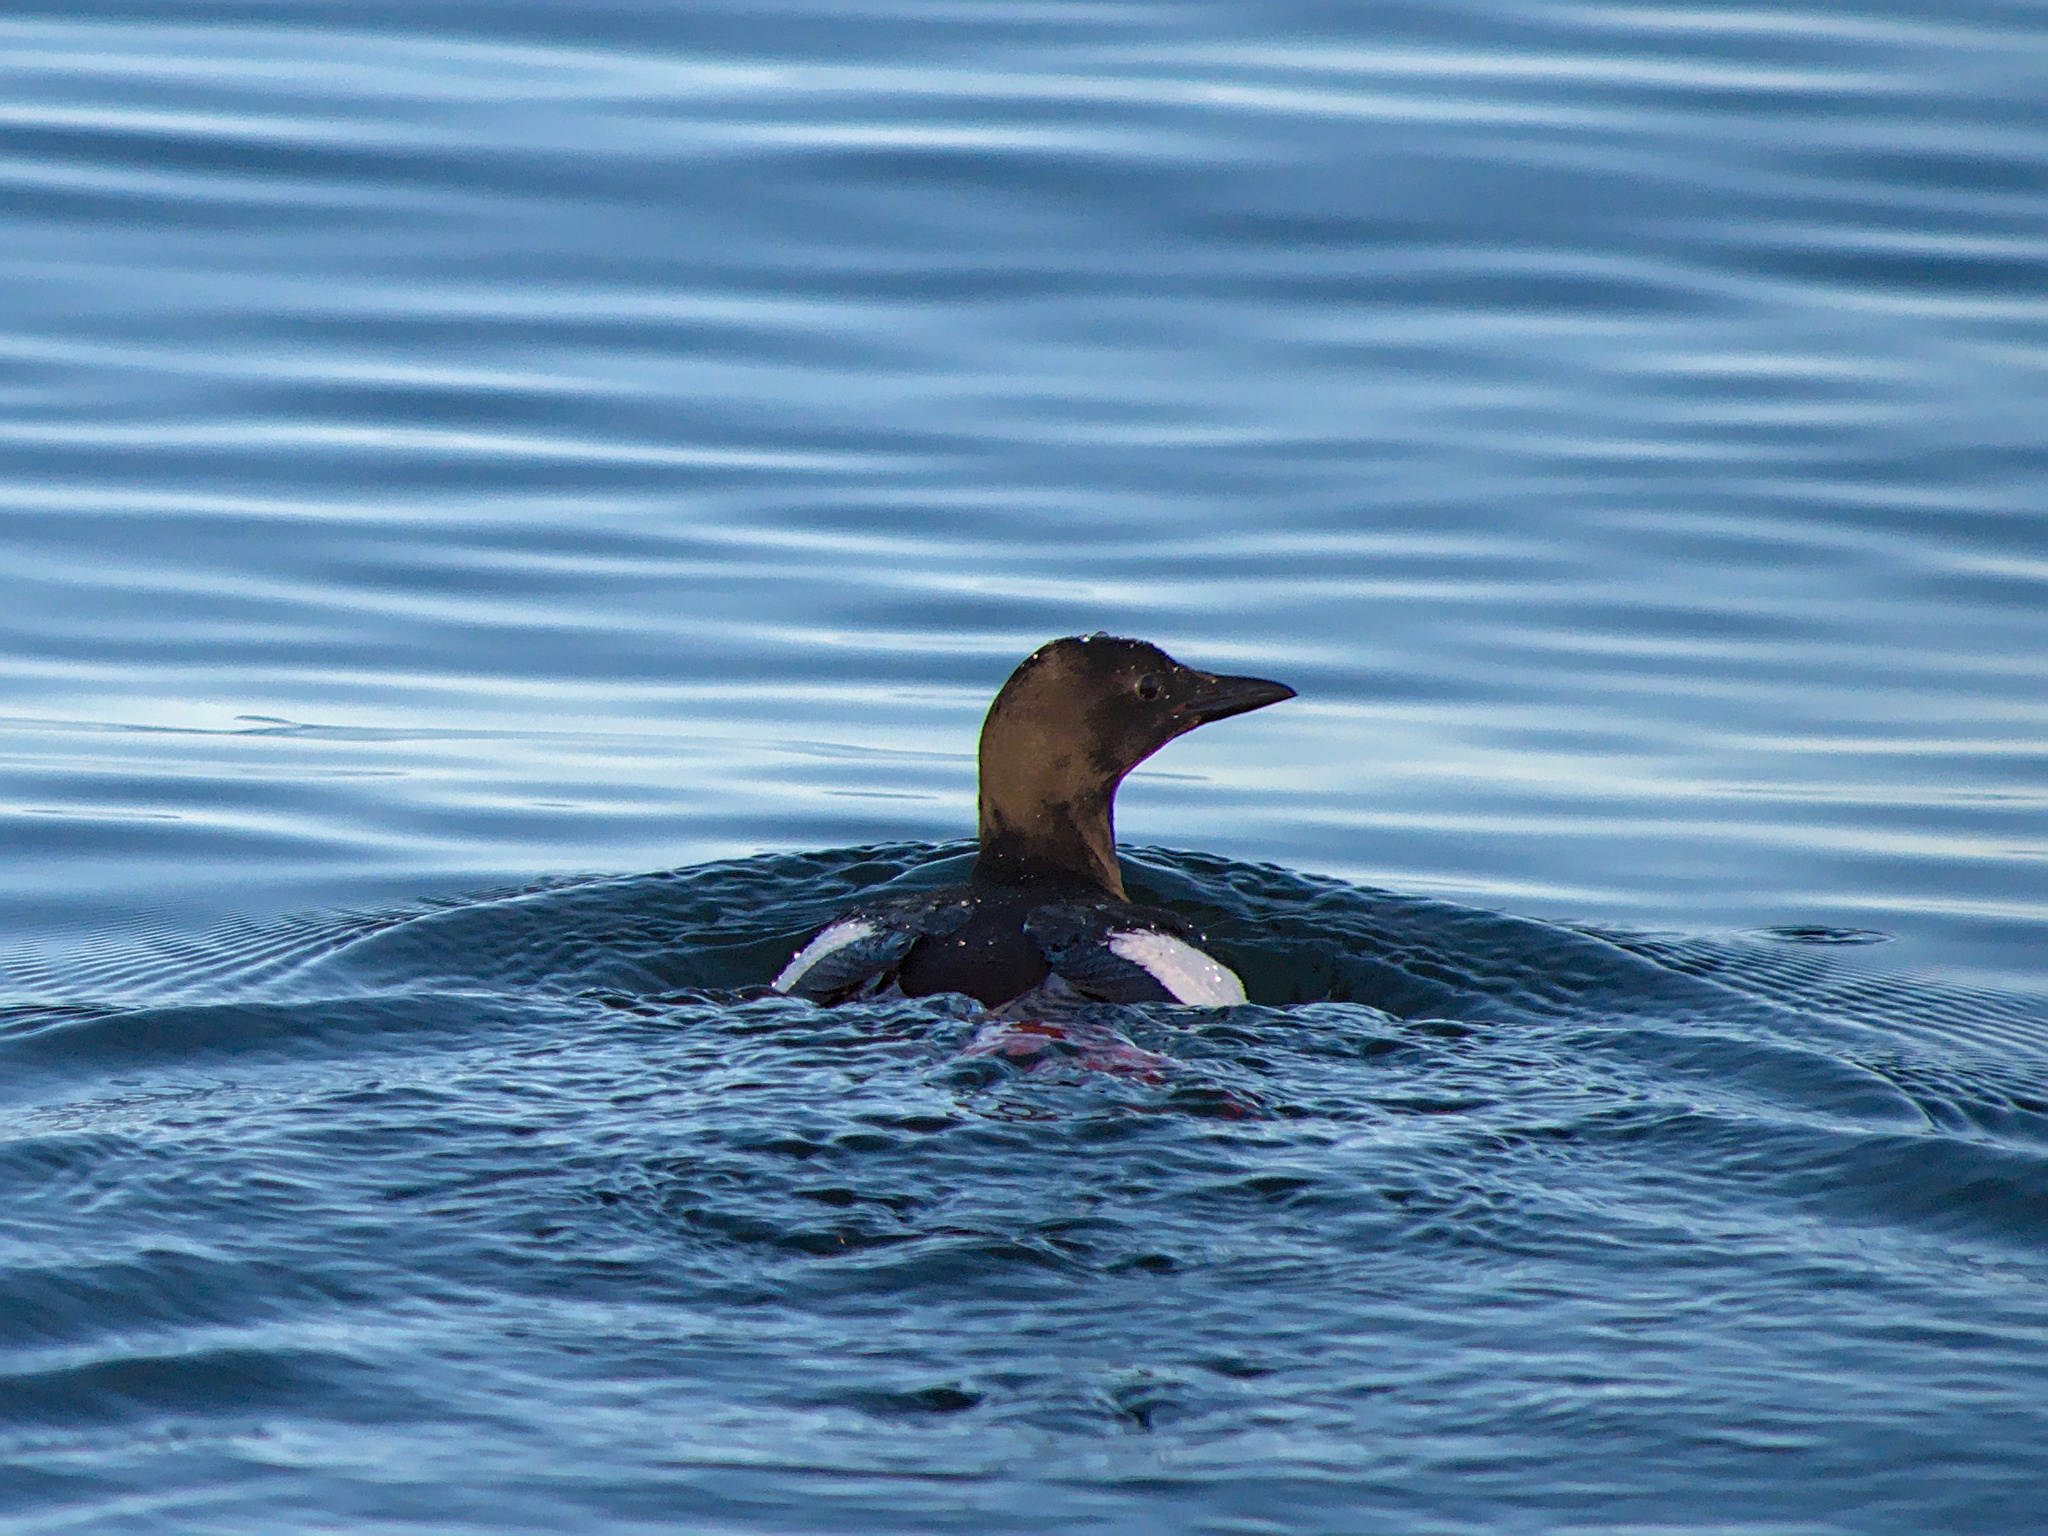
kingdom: Animalia
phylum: Chordata
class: Aves
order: Charadriiformes
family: Alcidae
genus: Cepphus
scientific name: Cepphus grylle
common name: Black guillemot
